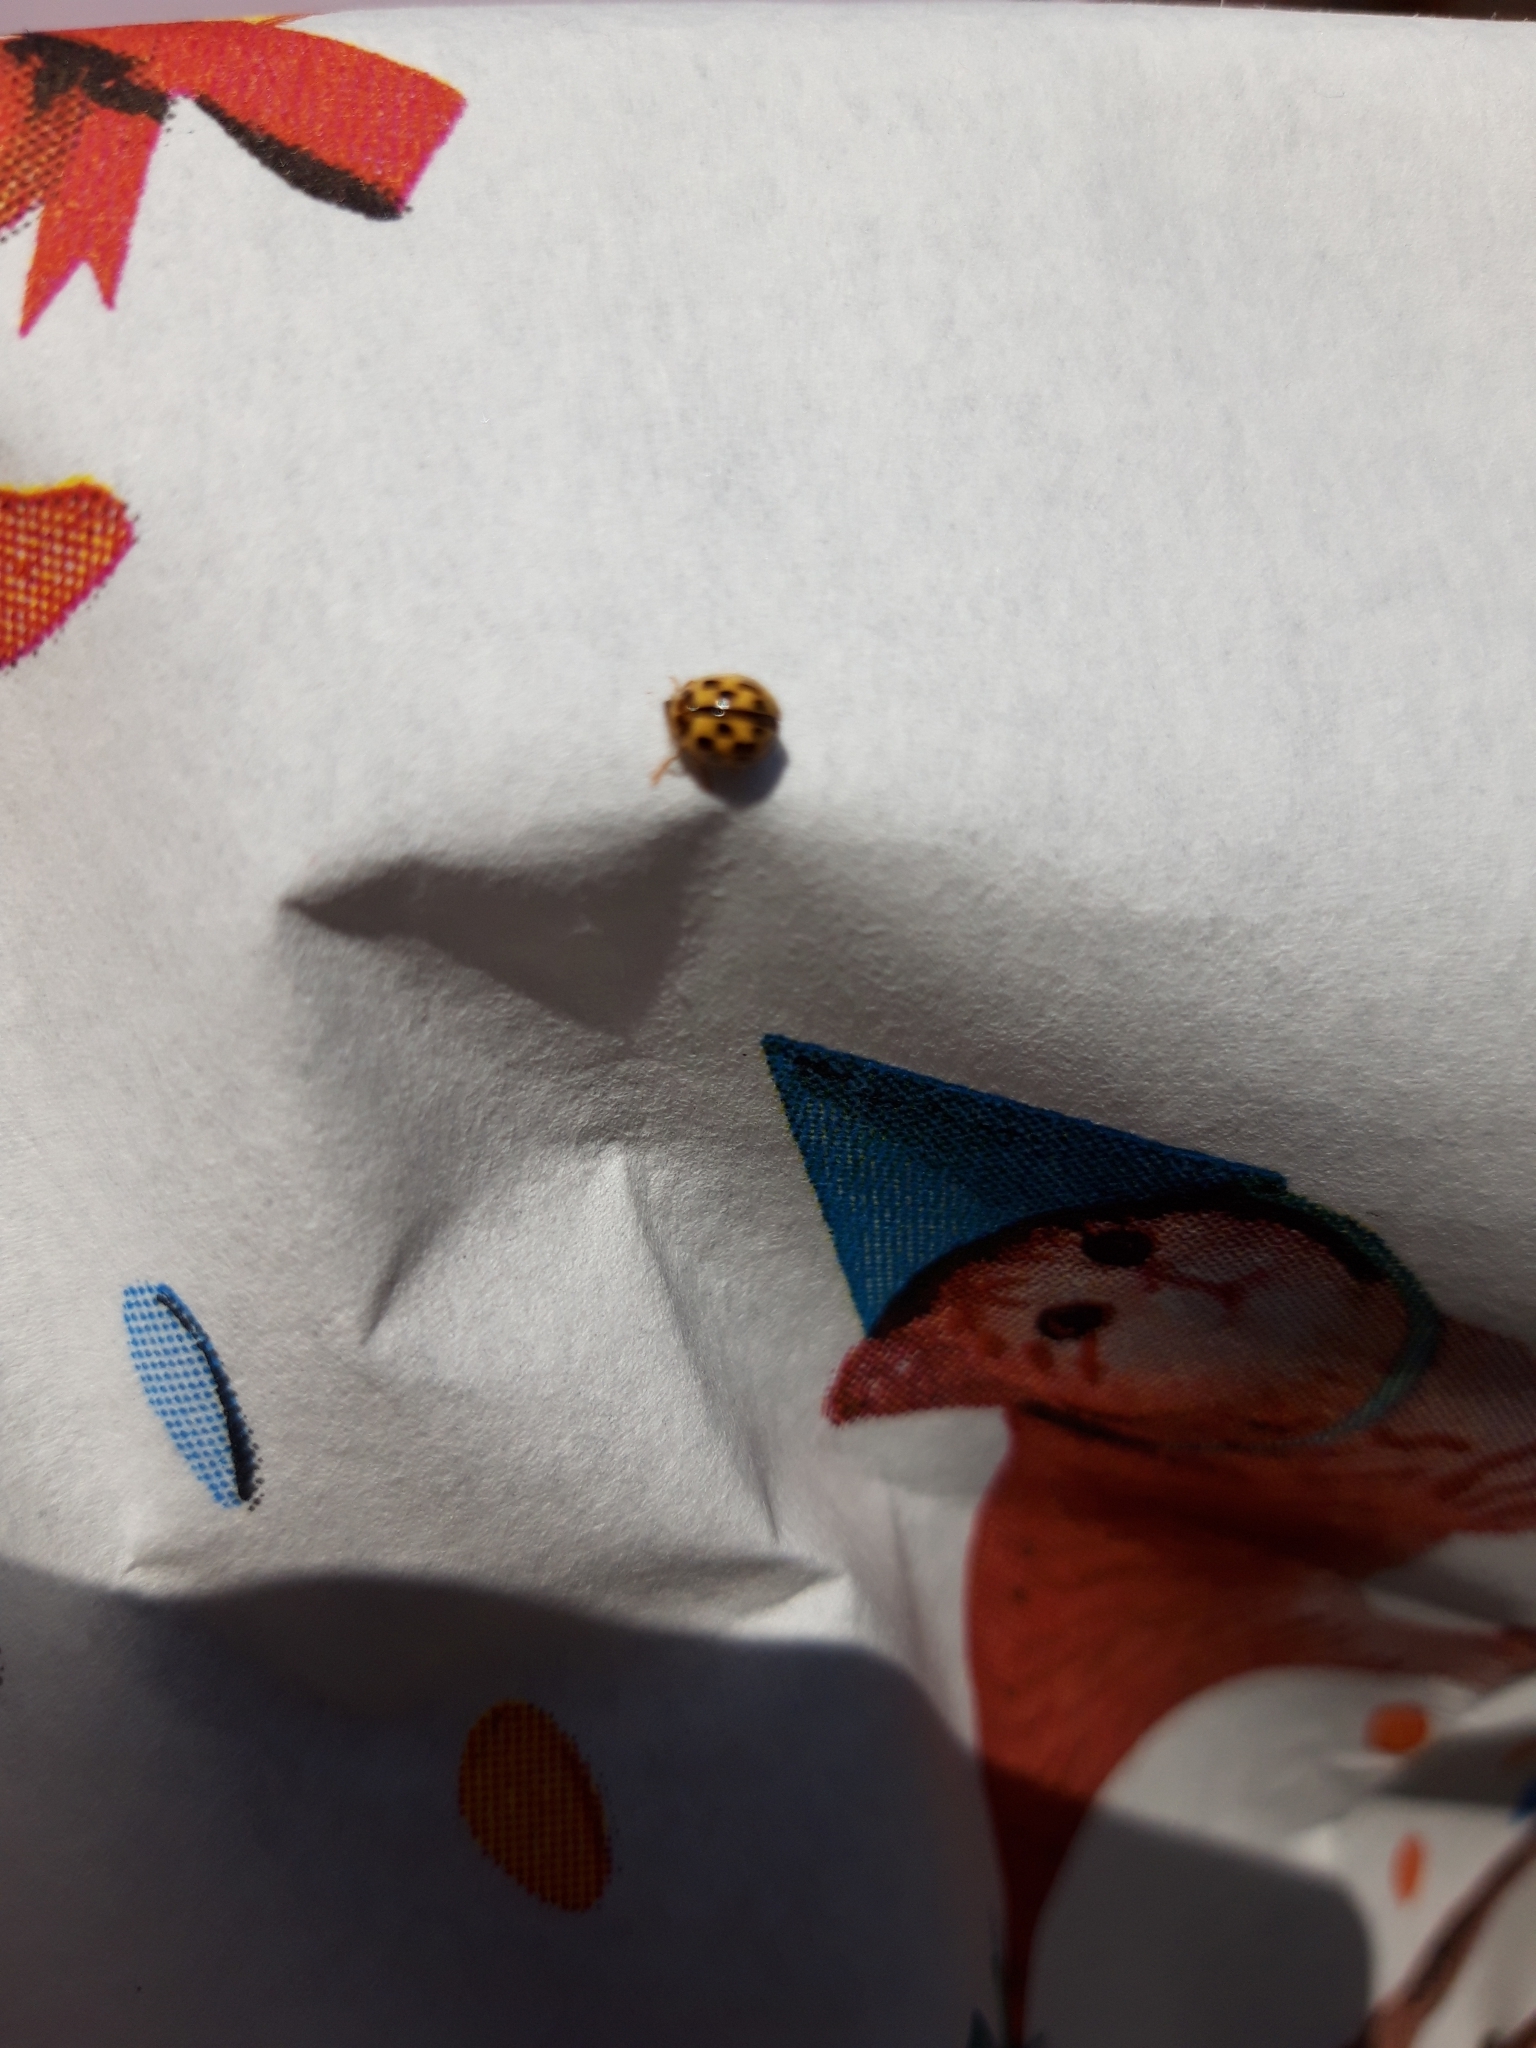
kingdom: Animalia
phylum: Arthropoda
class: Insecta
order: Coleoptera
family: Coccinellidae
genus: Propylaea
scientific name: Propylaea quatuordecimpunctata
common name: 14-spotted ladybird beetle
